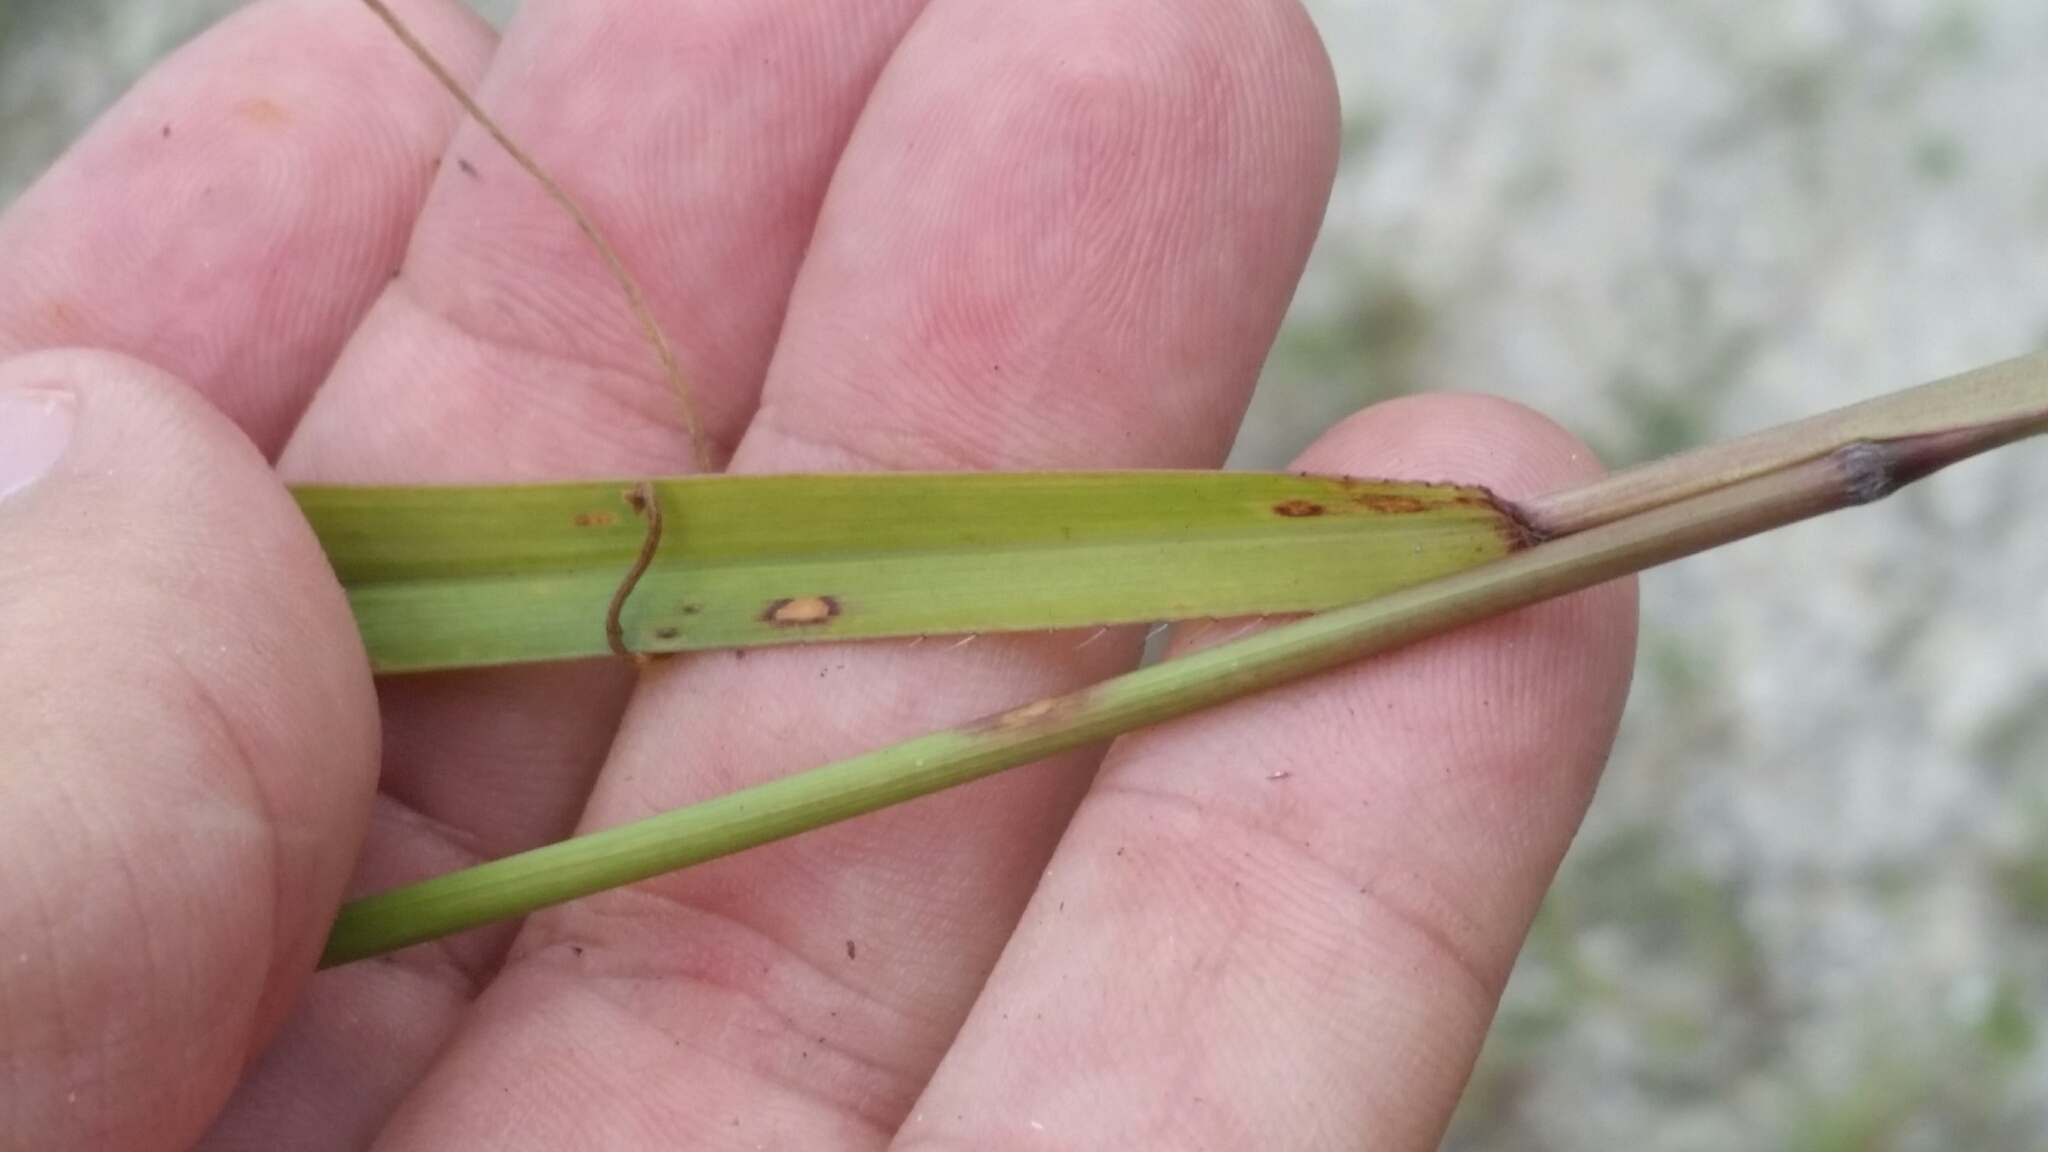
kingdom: Plantae
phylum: Tracheophyta
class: Liliopsida
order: Poales
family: Poaceae
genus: Paspalum
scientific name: Paspalum blodgettii
